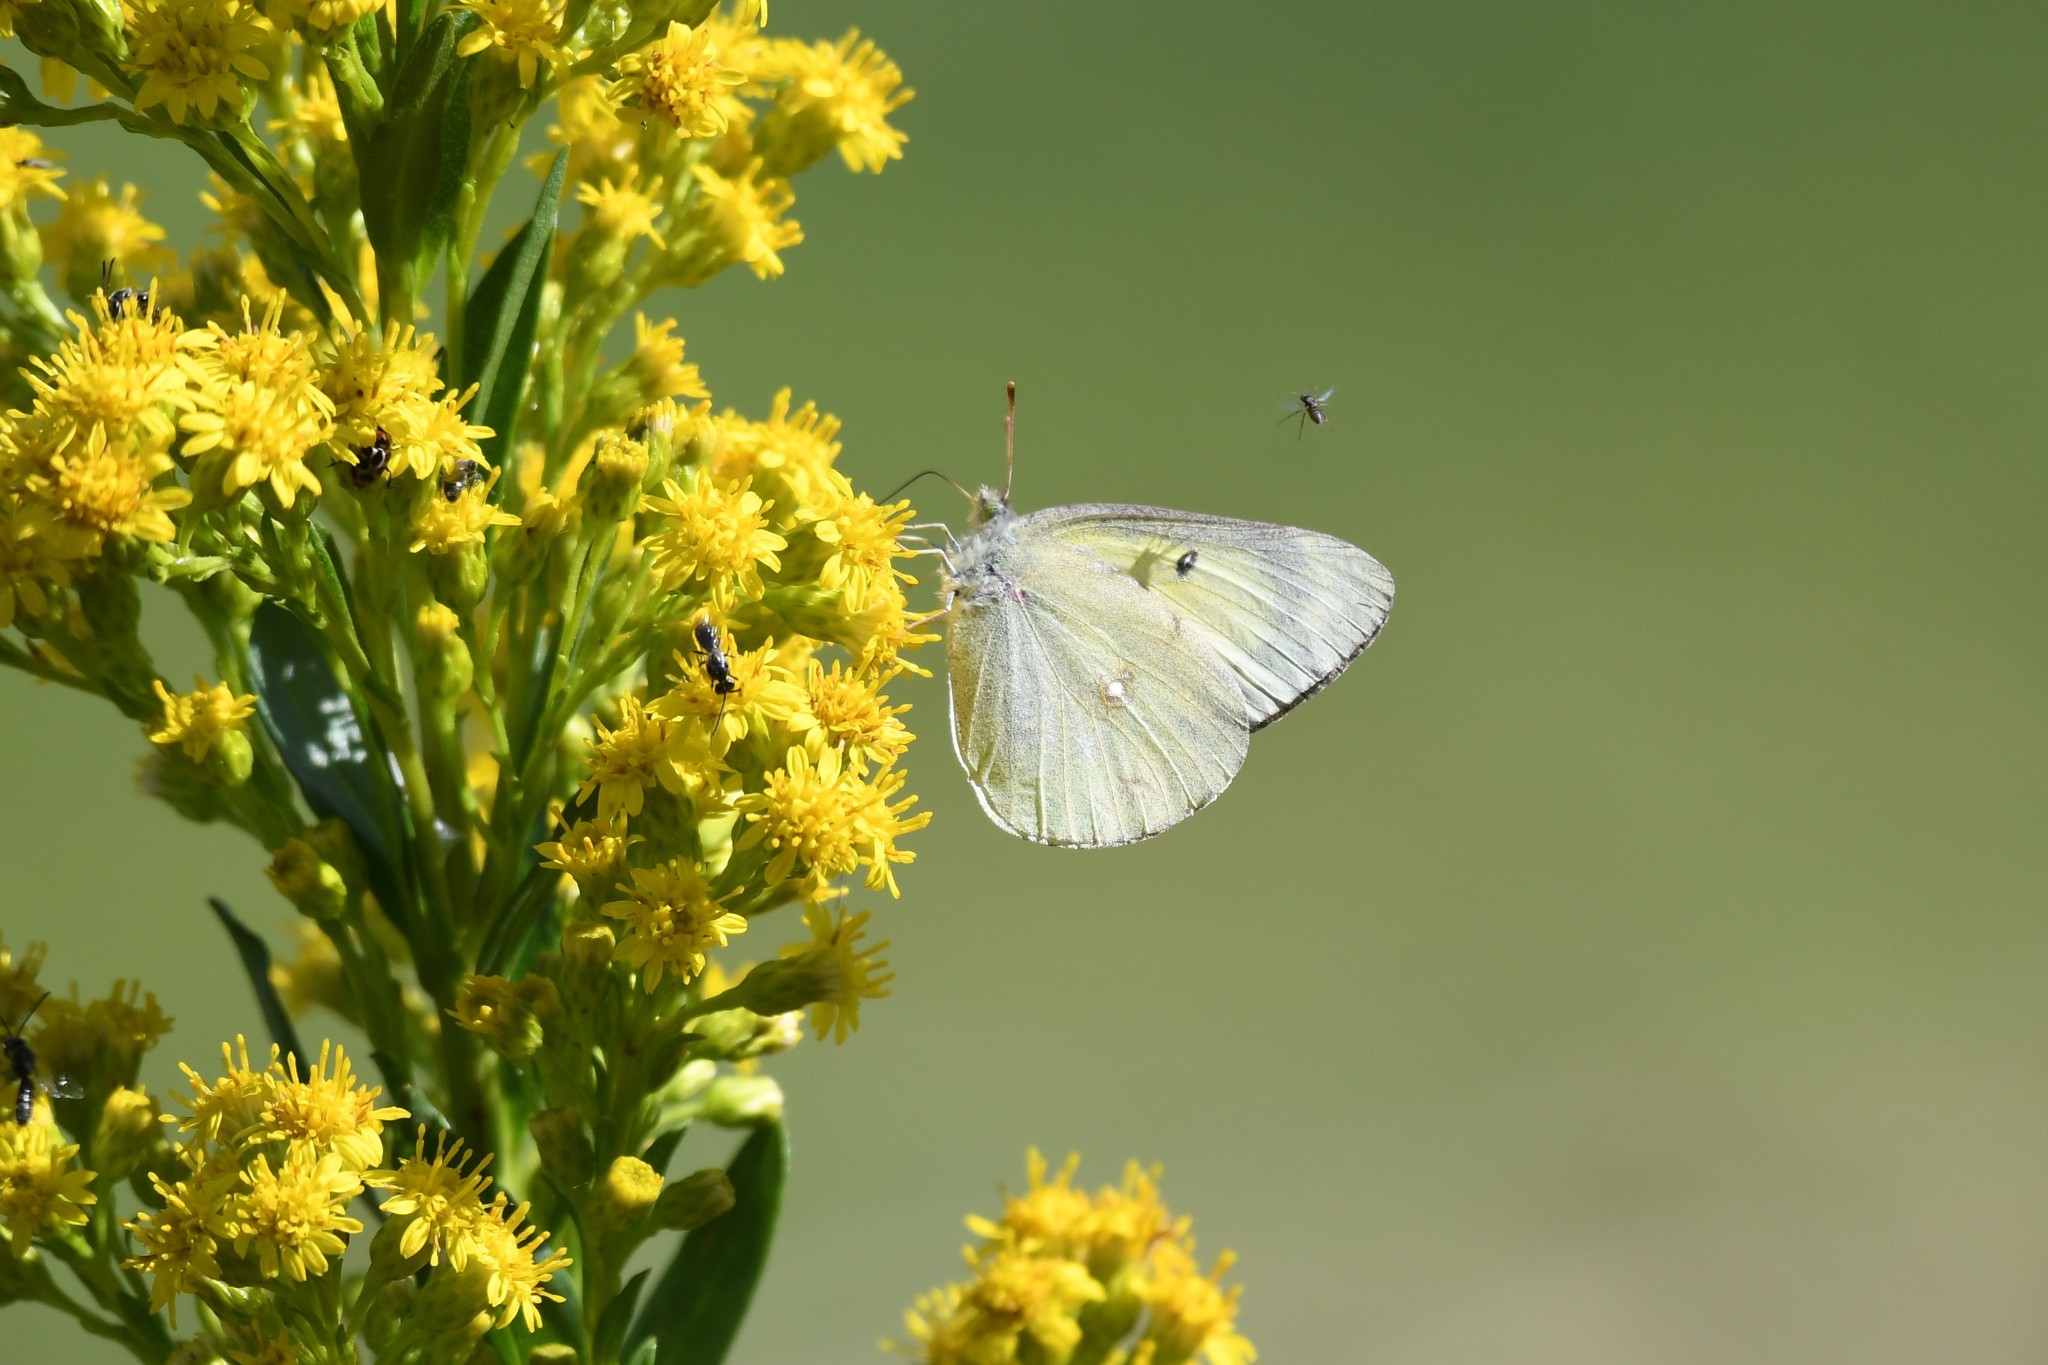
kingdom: Animalia
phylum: Arthropoda
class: Insecta
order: Lepidoptera
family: Pieridae
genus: Colias
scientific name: Colias philodice
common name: Clouded sulphur
